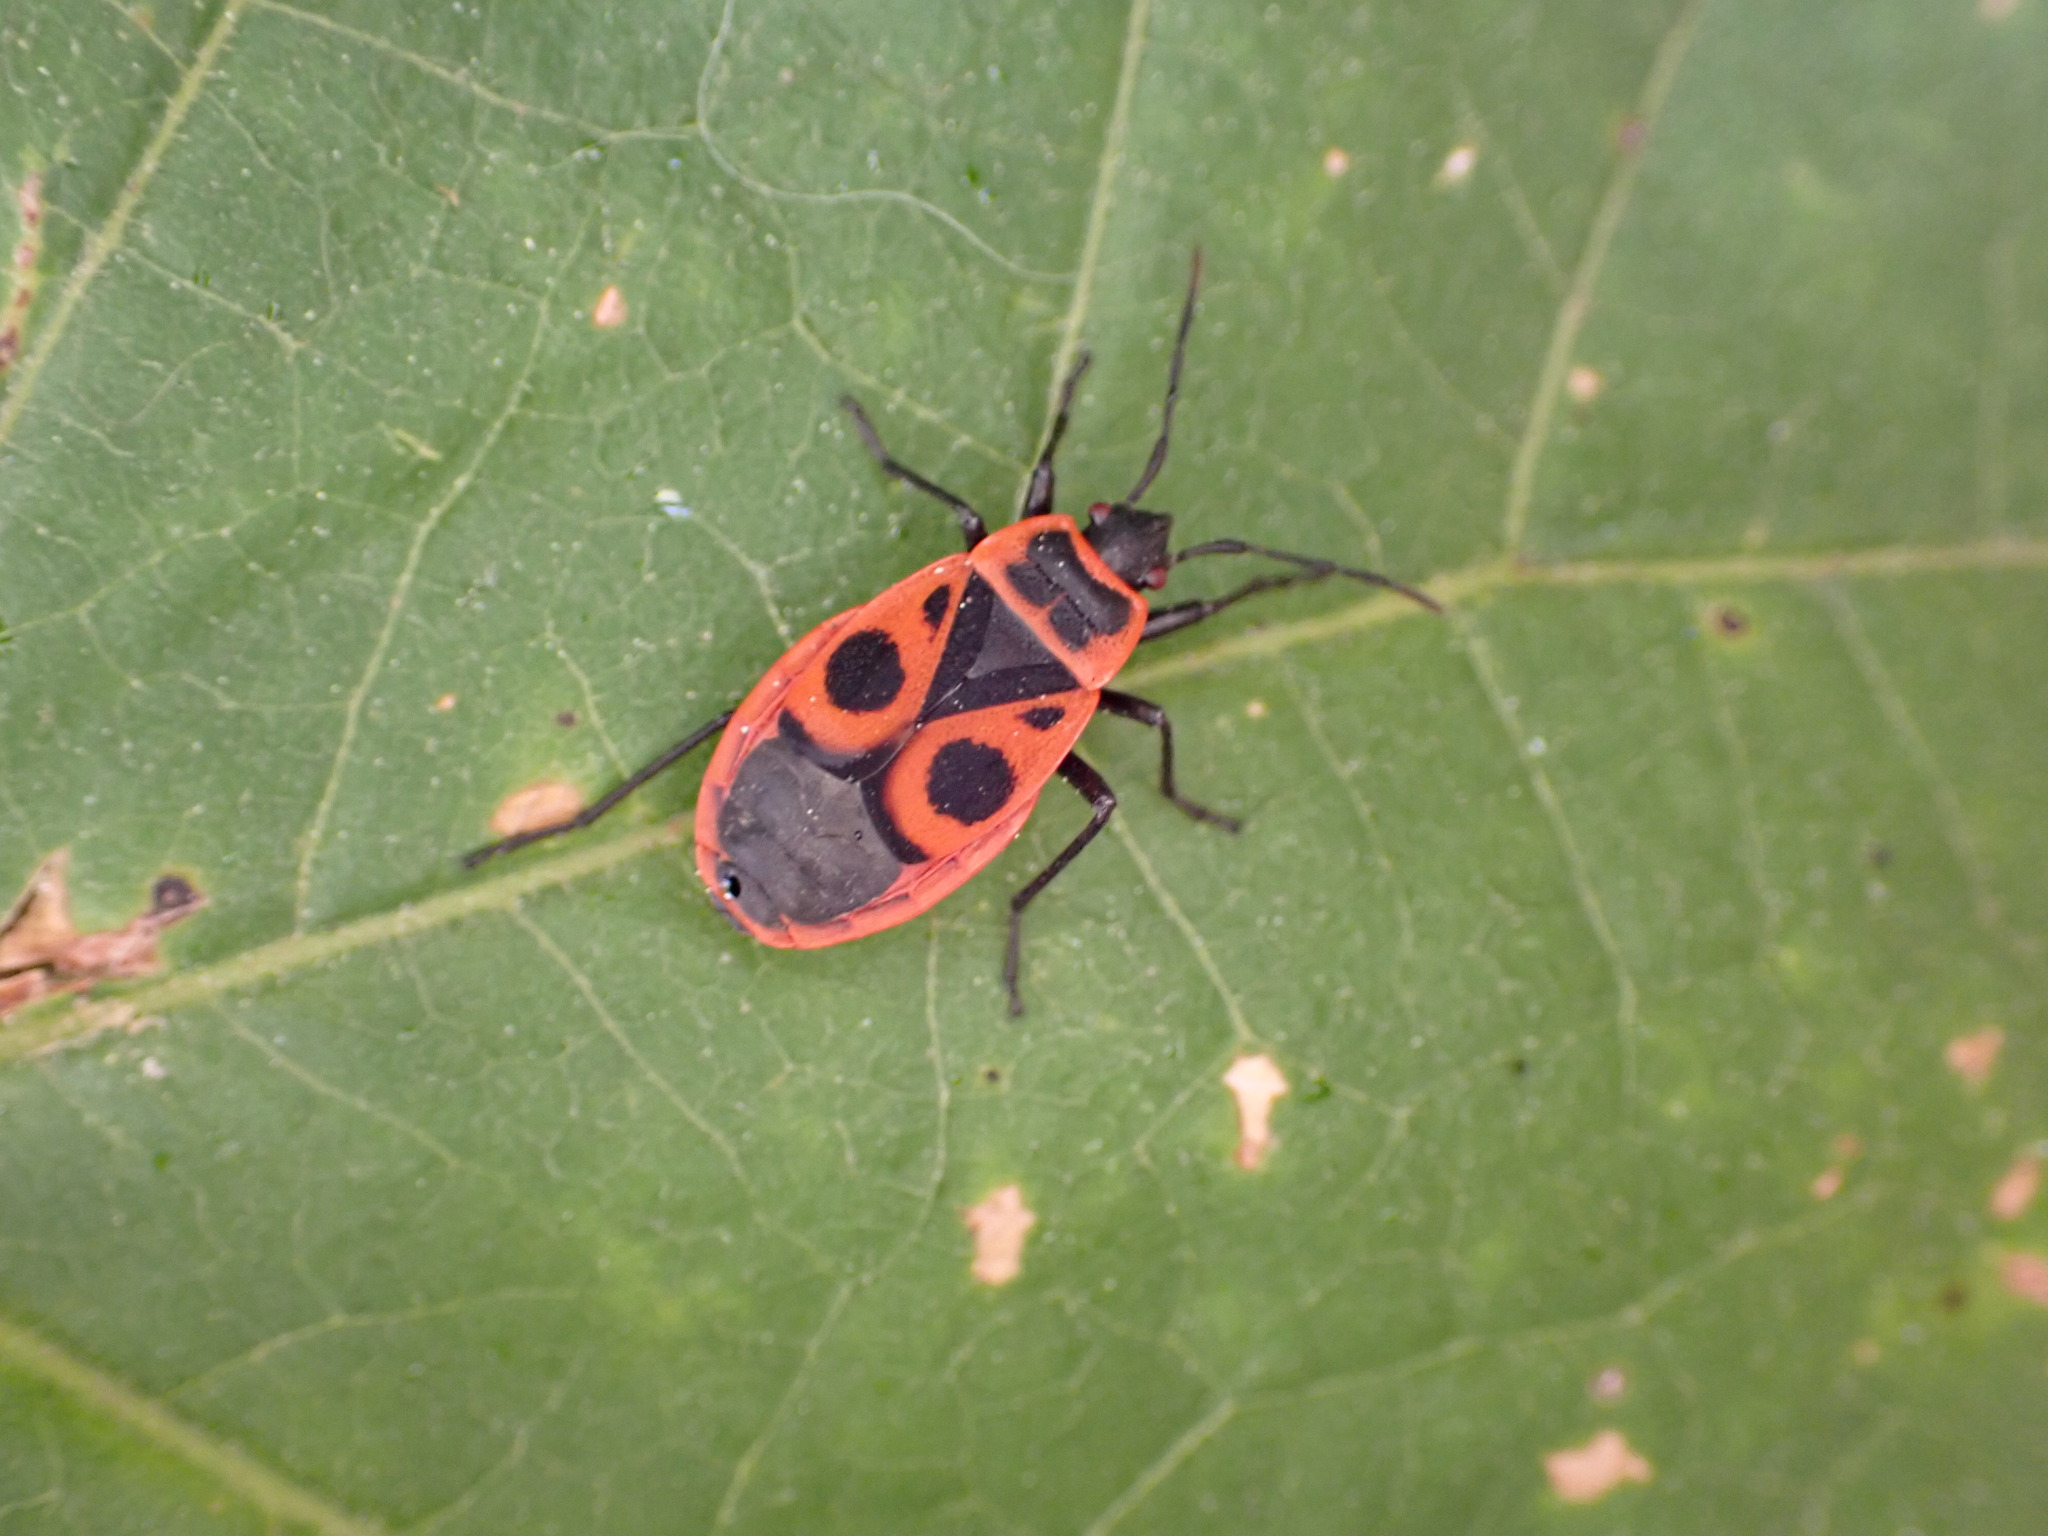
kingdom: Animalia
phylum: Arthropoda
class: Insecta
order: Hemiptera
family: Pyrrhocoridae
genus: Pyrrhocoris
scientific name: Pyrrhocoris apterus
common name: Firebug
